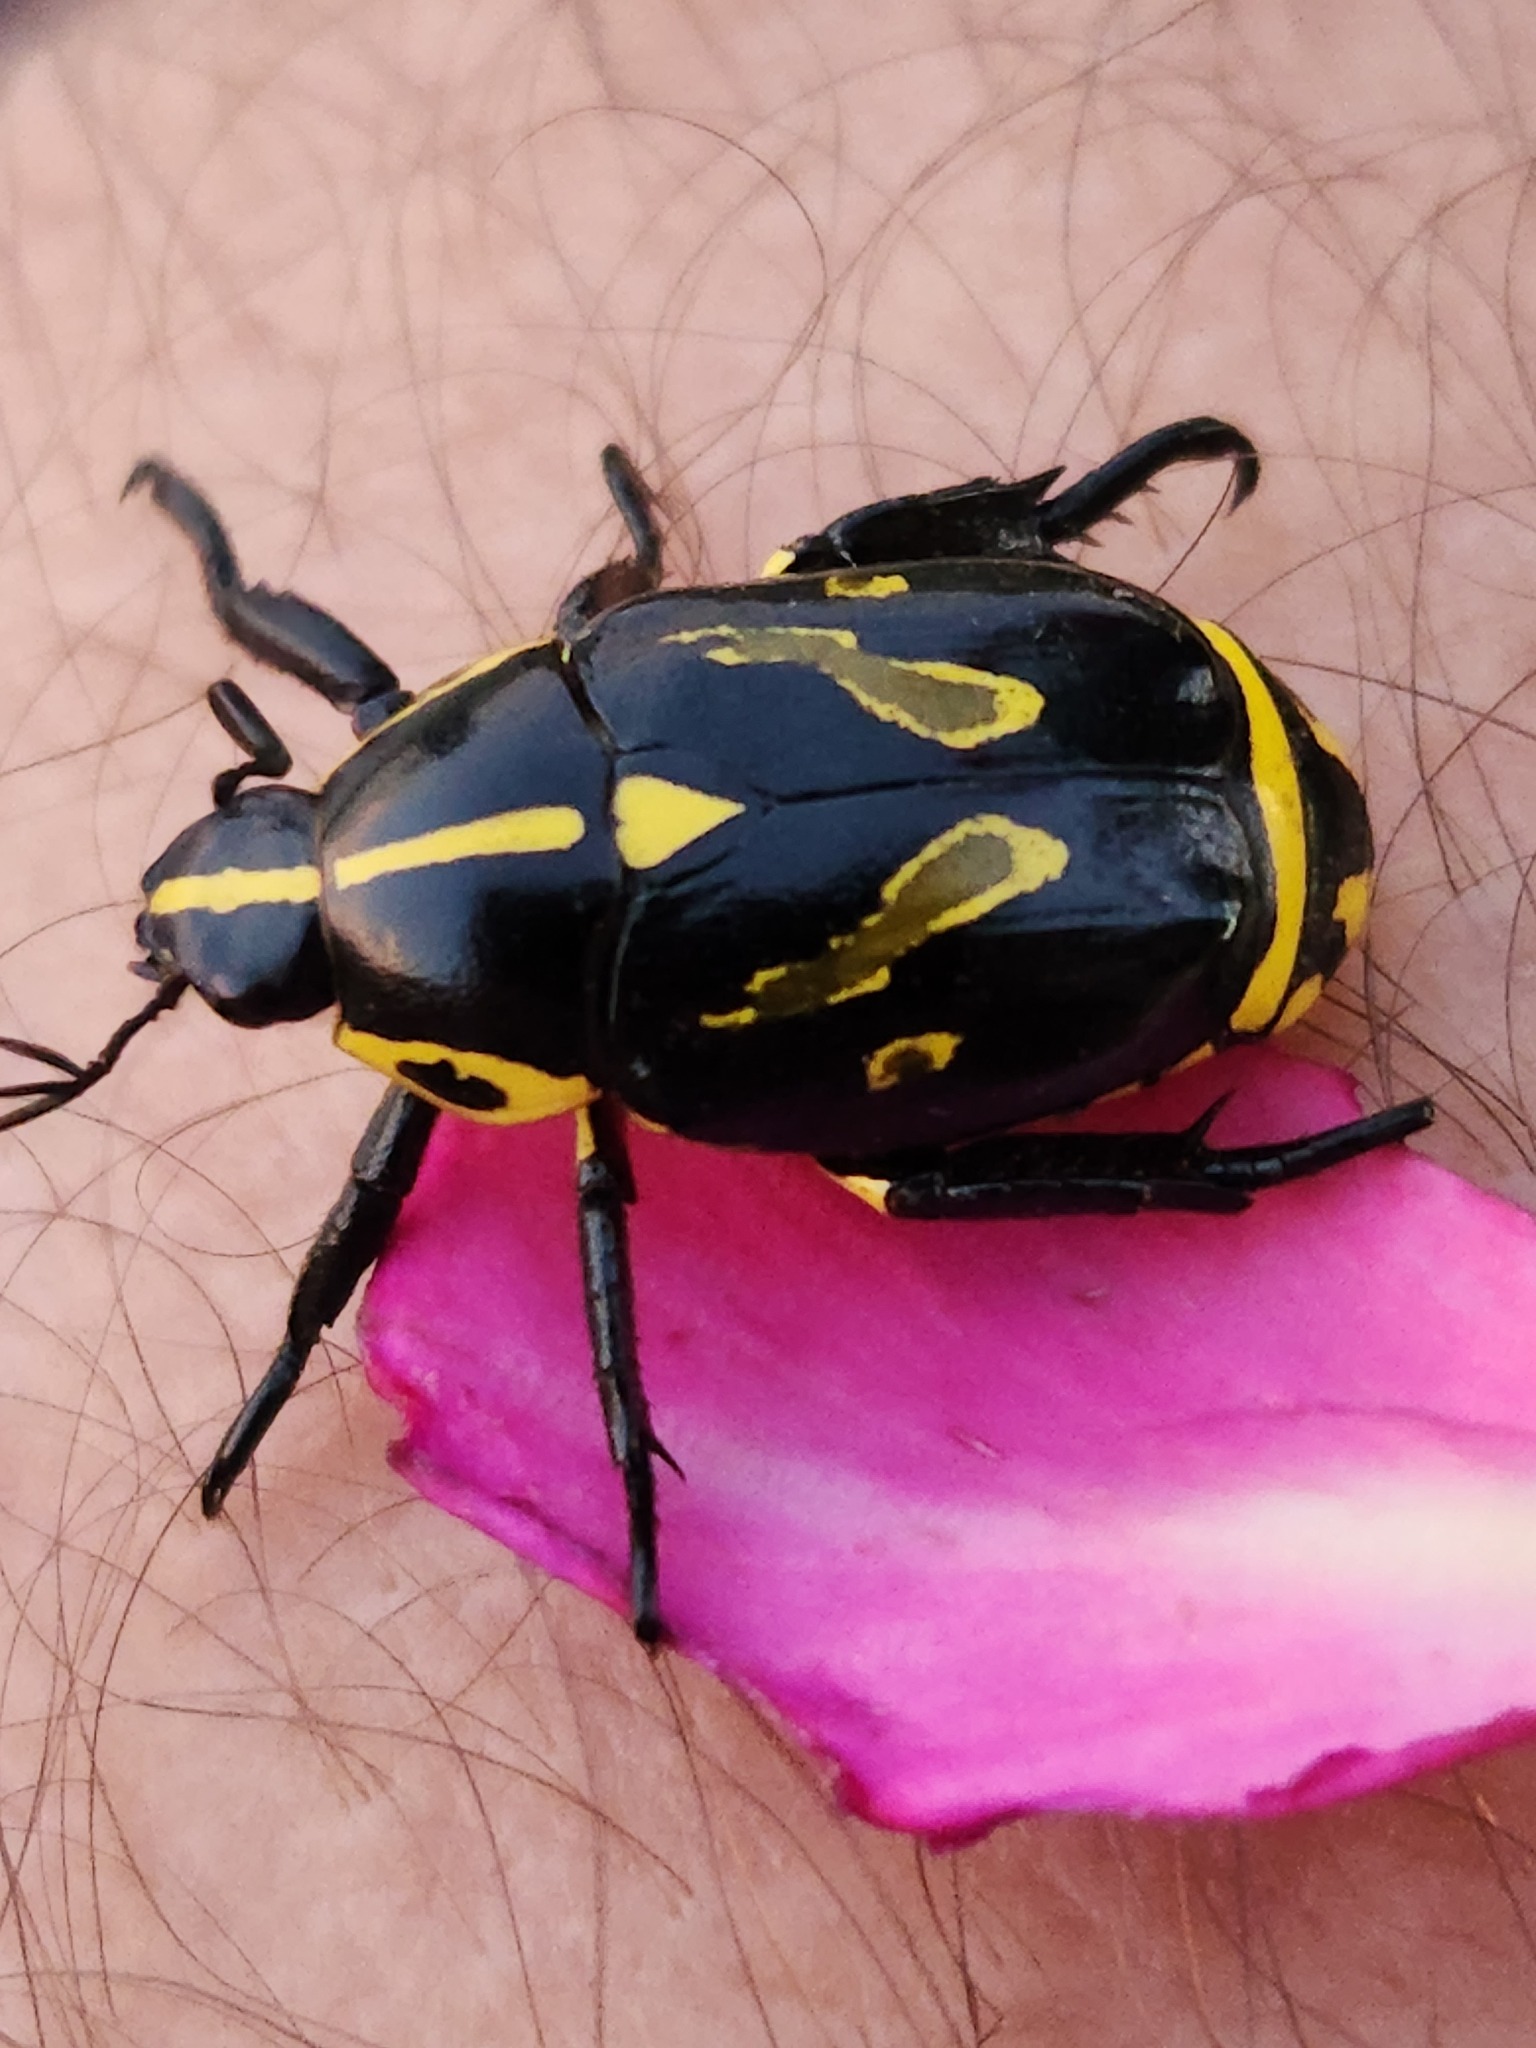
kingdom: Animalia
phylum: Arthropoda
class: Insecta
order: Coleoptera
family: Scarabaeidae
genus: Rutela
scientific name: Rutela lineola
